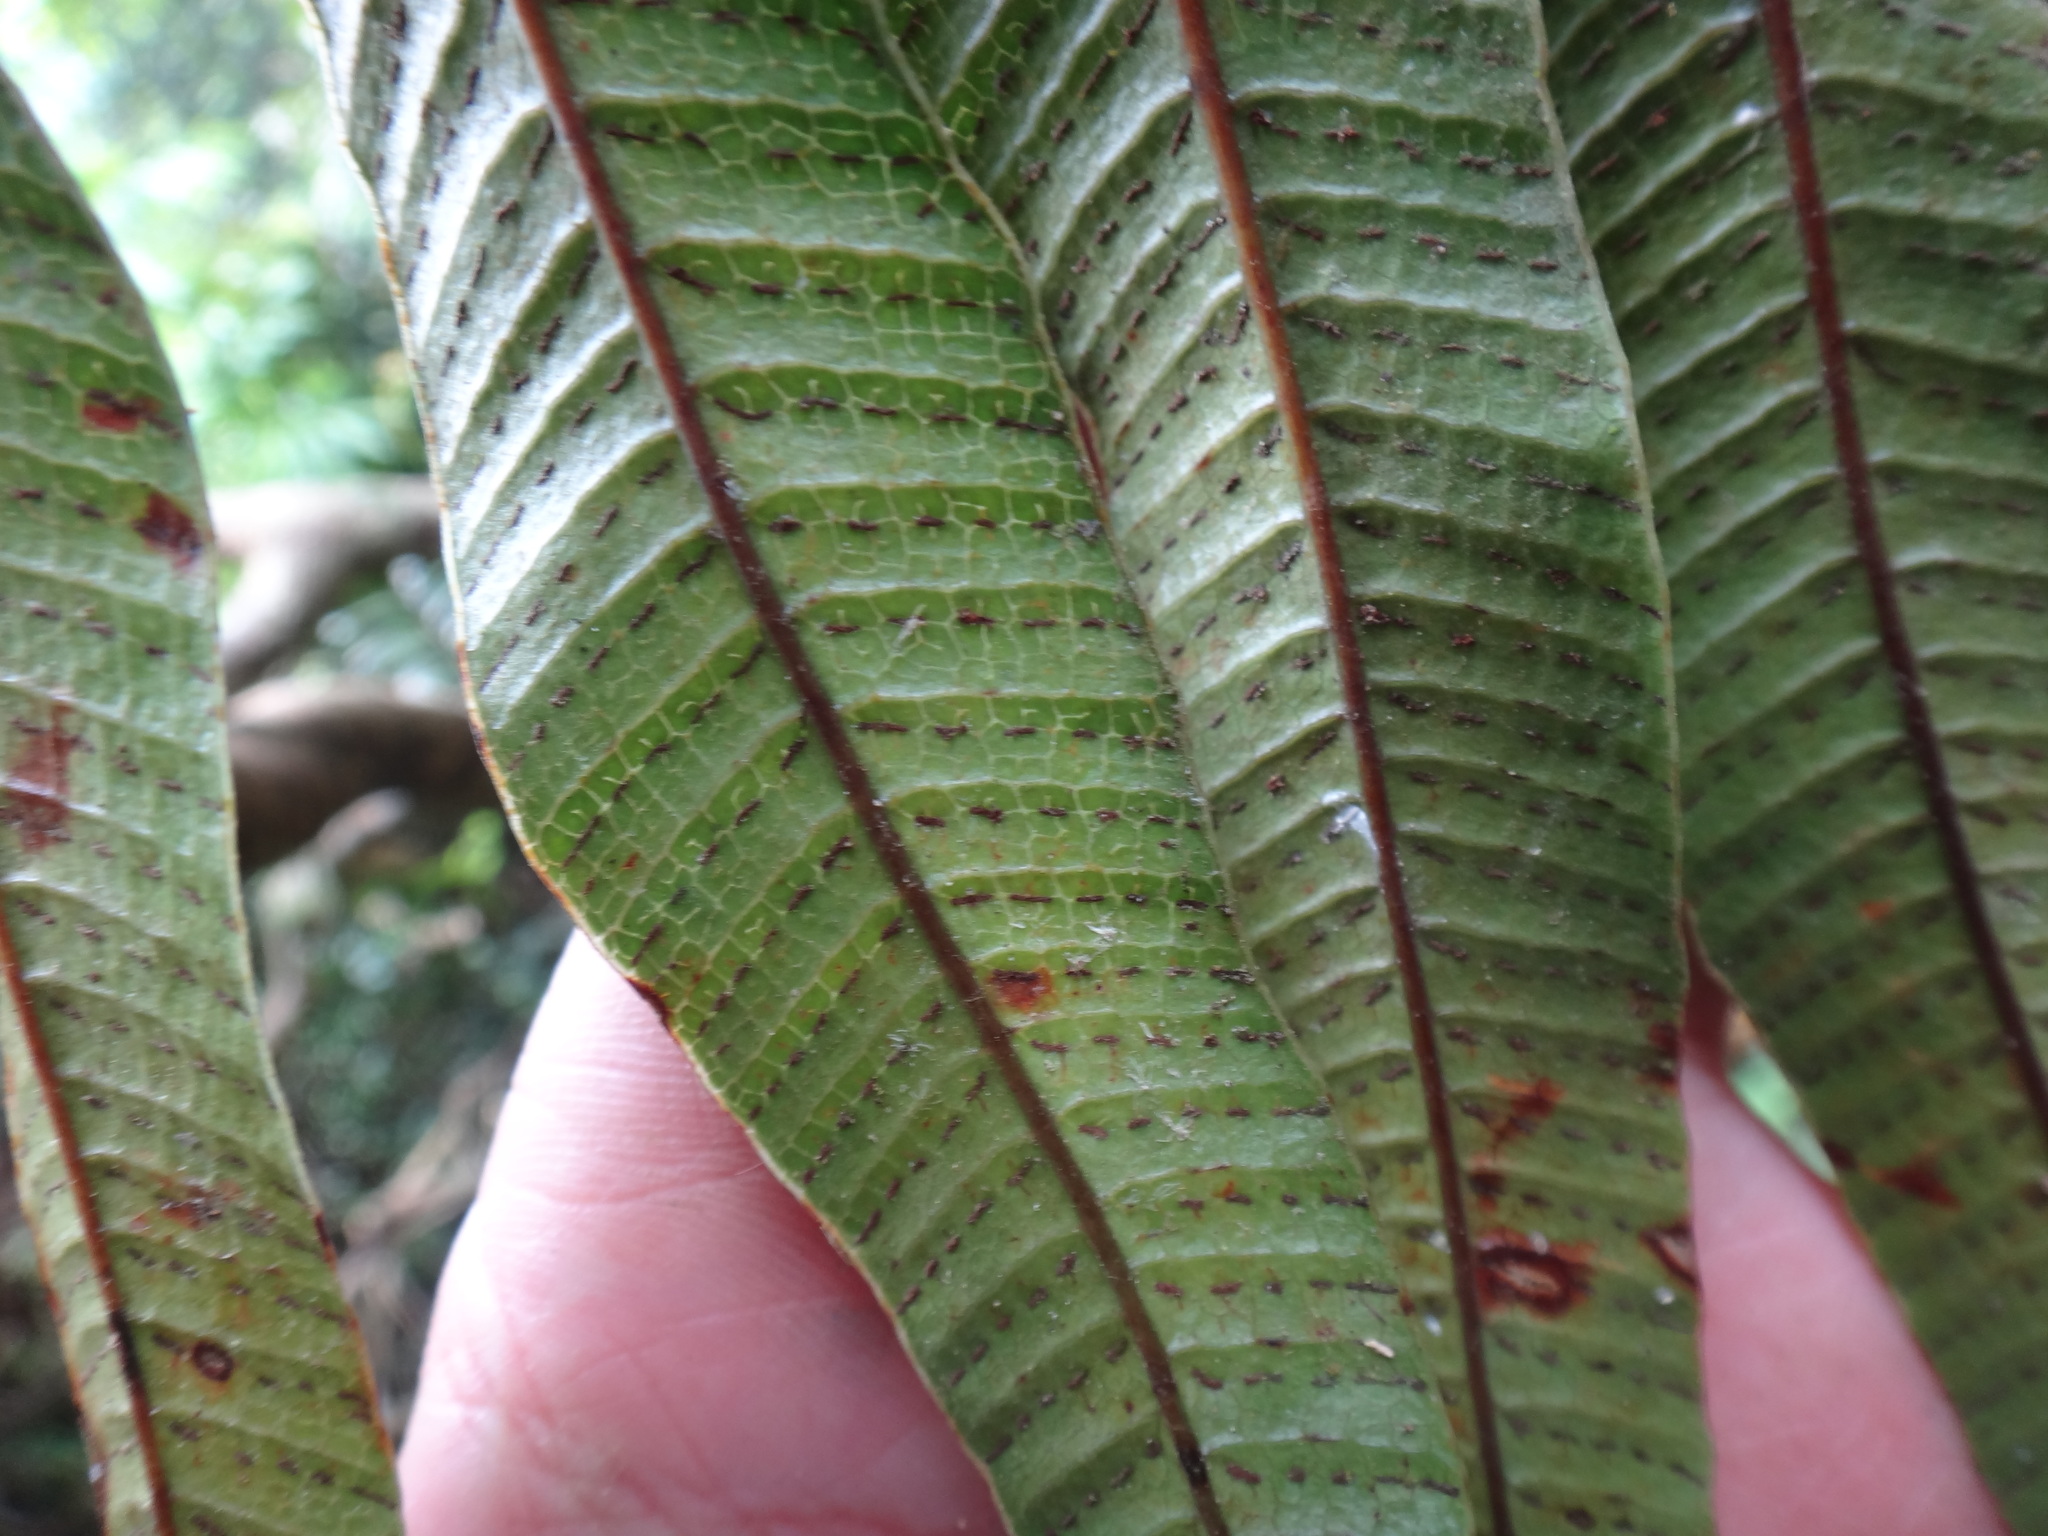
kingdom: Plantae
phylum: Tracheophyta
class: Polypodiopsida
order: Polypodiales
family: Polypodiaceae
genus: Drynaria
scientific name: Drynaria coronans
